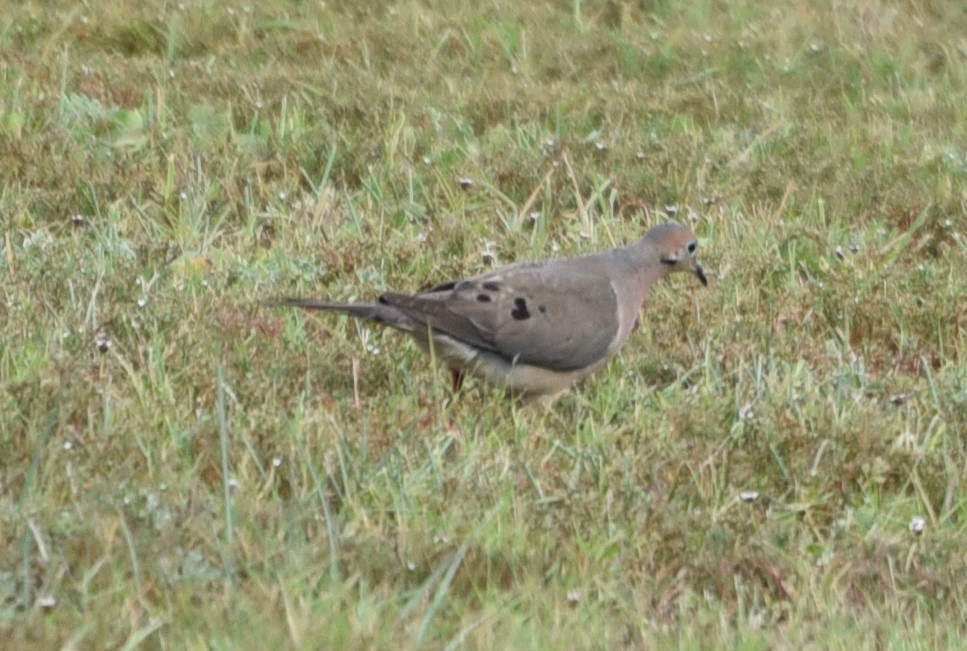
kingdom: Animalia
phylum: Chordata
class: Aves
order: Columbiformes
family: Columbidae
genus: Zenaida
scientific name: Zenaida macroura
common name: Mourning dove
